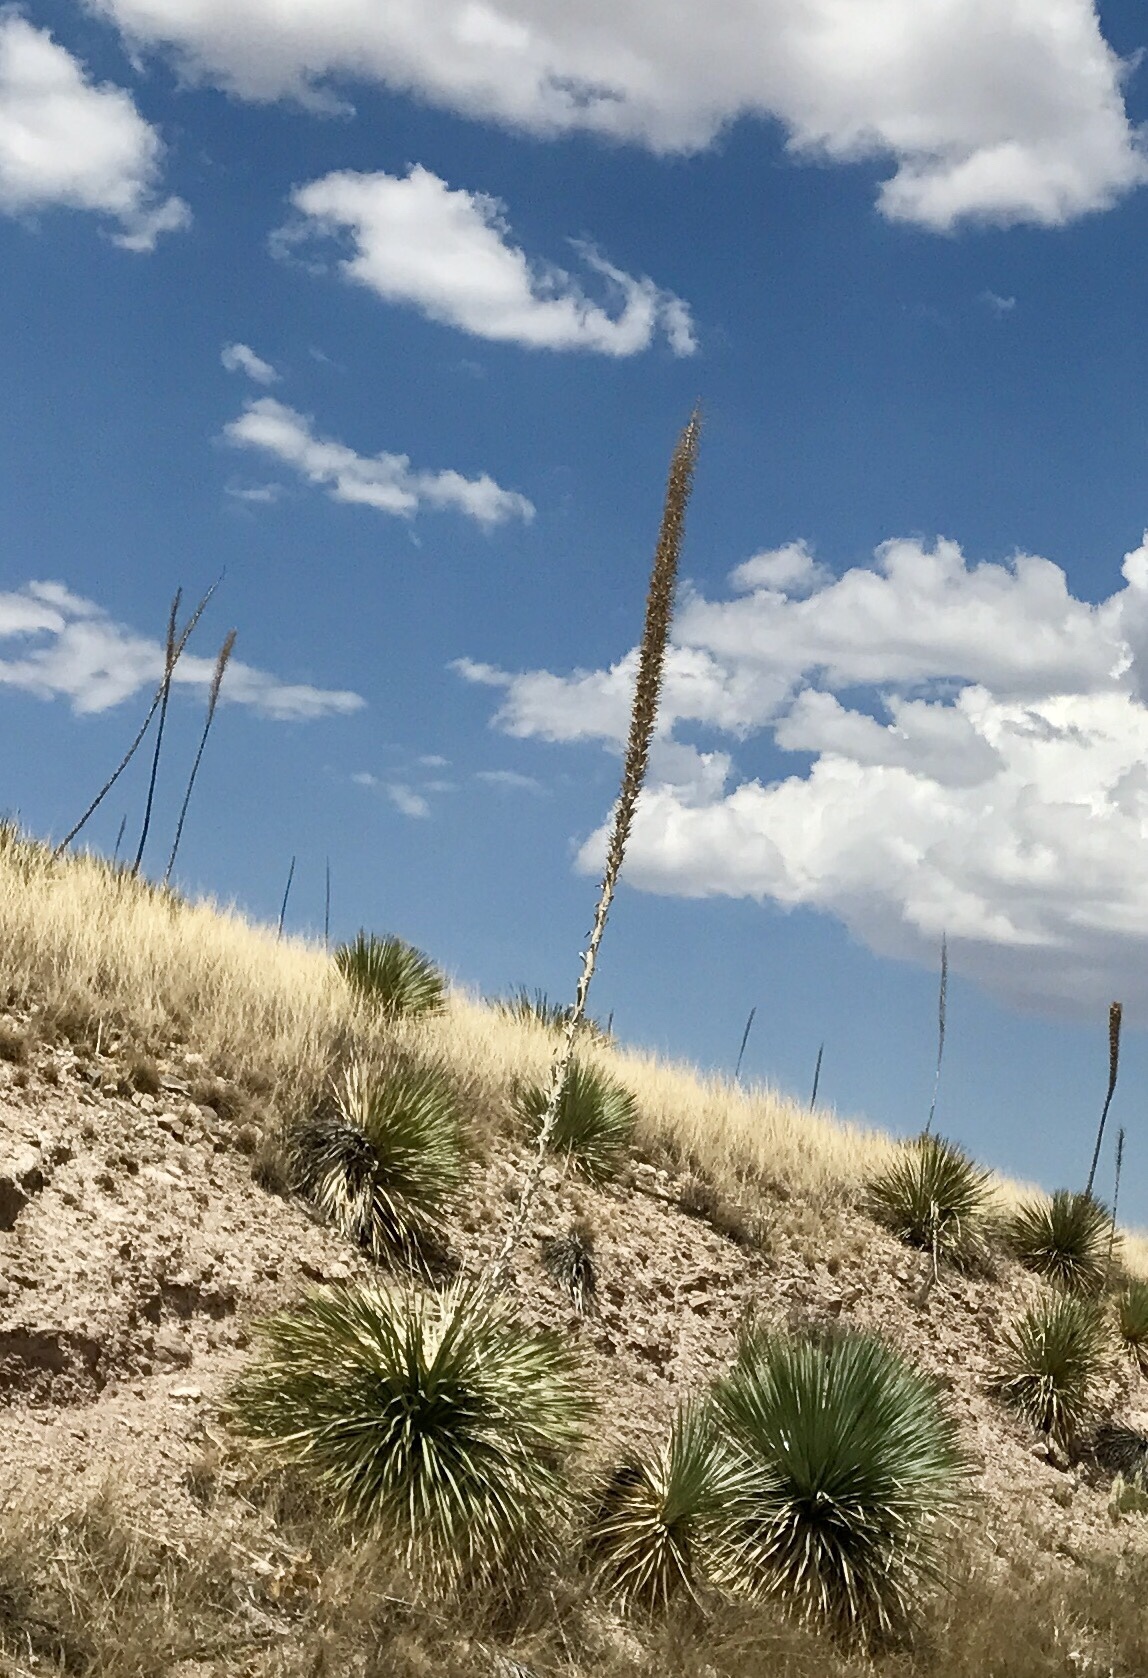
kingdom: Plantae
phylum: Tracheophyta
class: Liliopsida
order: Asparagales
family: Asparagaceae
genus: Dasylirion
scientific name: Dasylirion wheeleri
